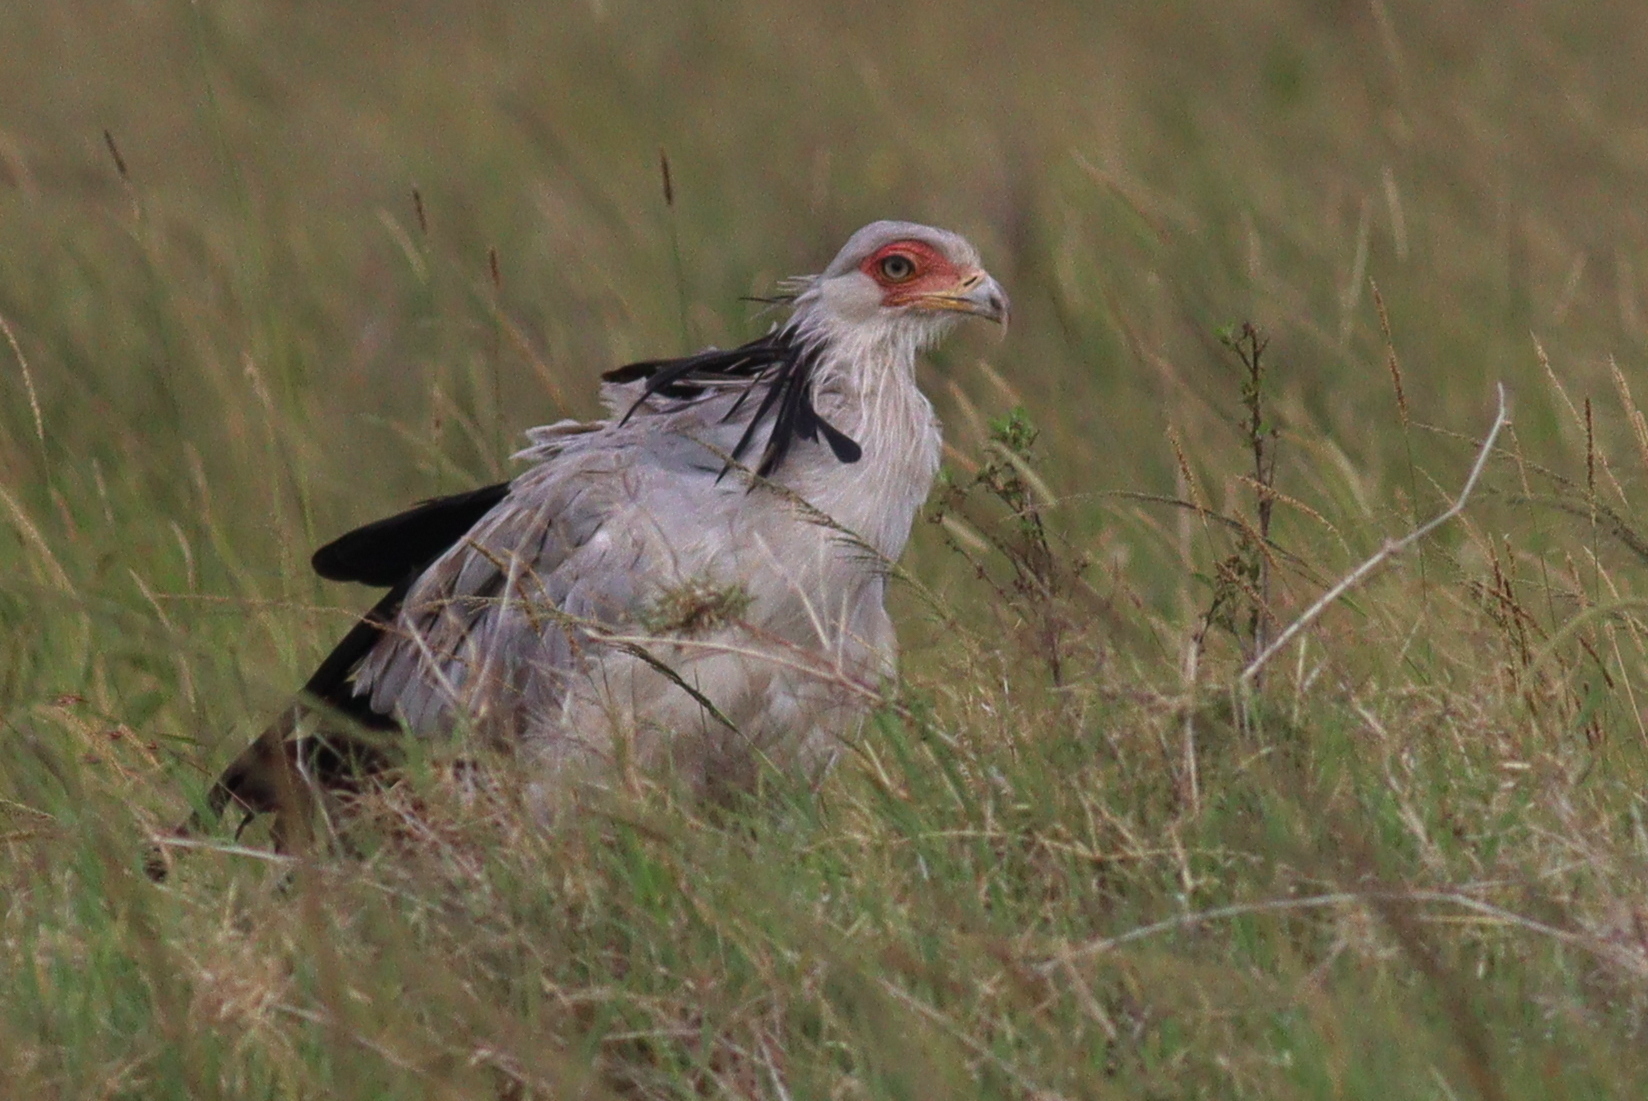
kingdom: Animalia
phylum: Chordata
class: Aves
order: Accipitriformes
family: Sagittariidae
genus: Sagittarius
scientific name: Sagittarius serpentarius
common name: Secretarybird
